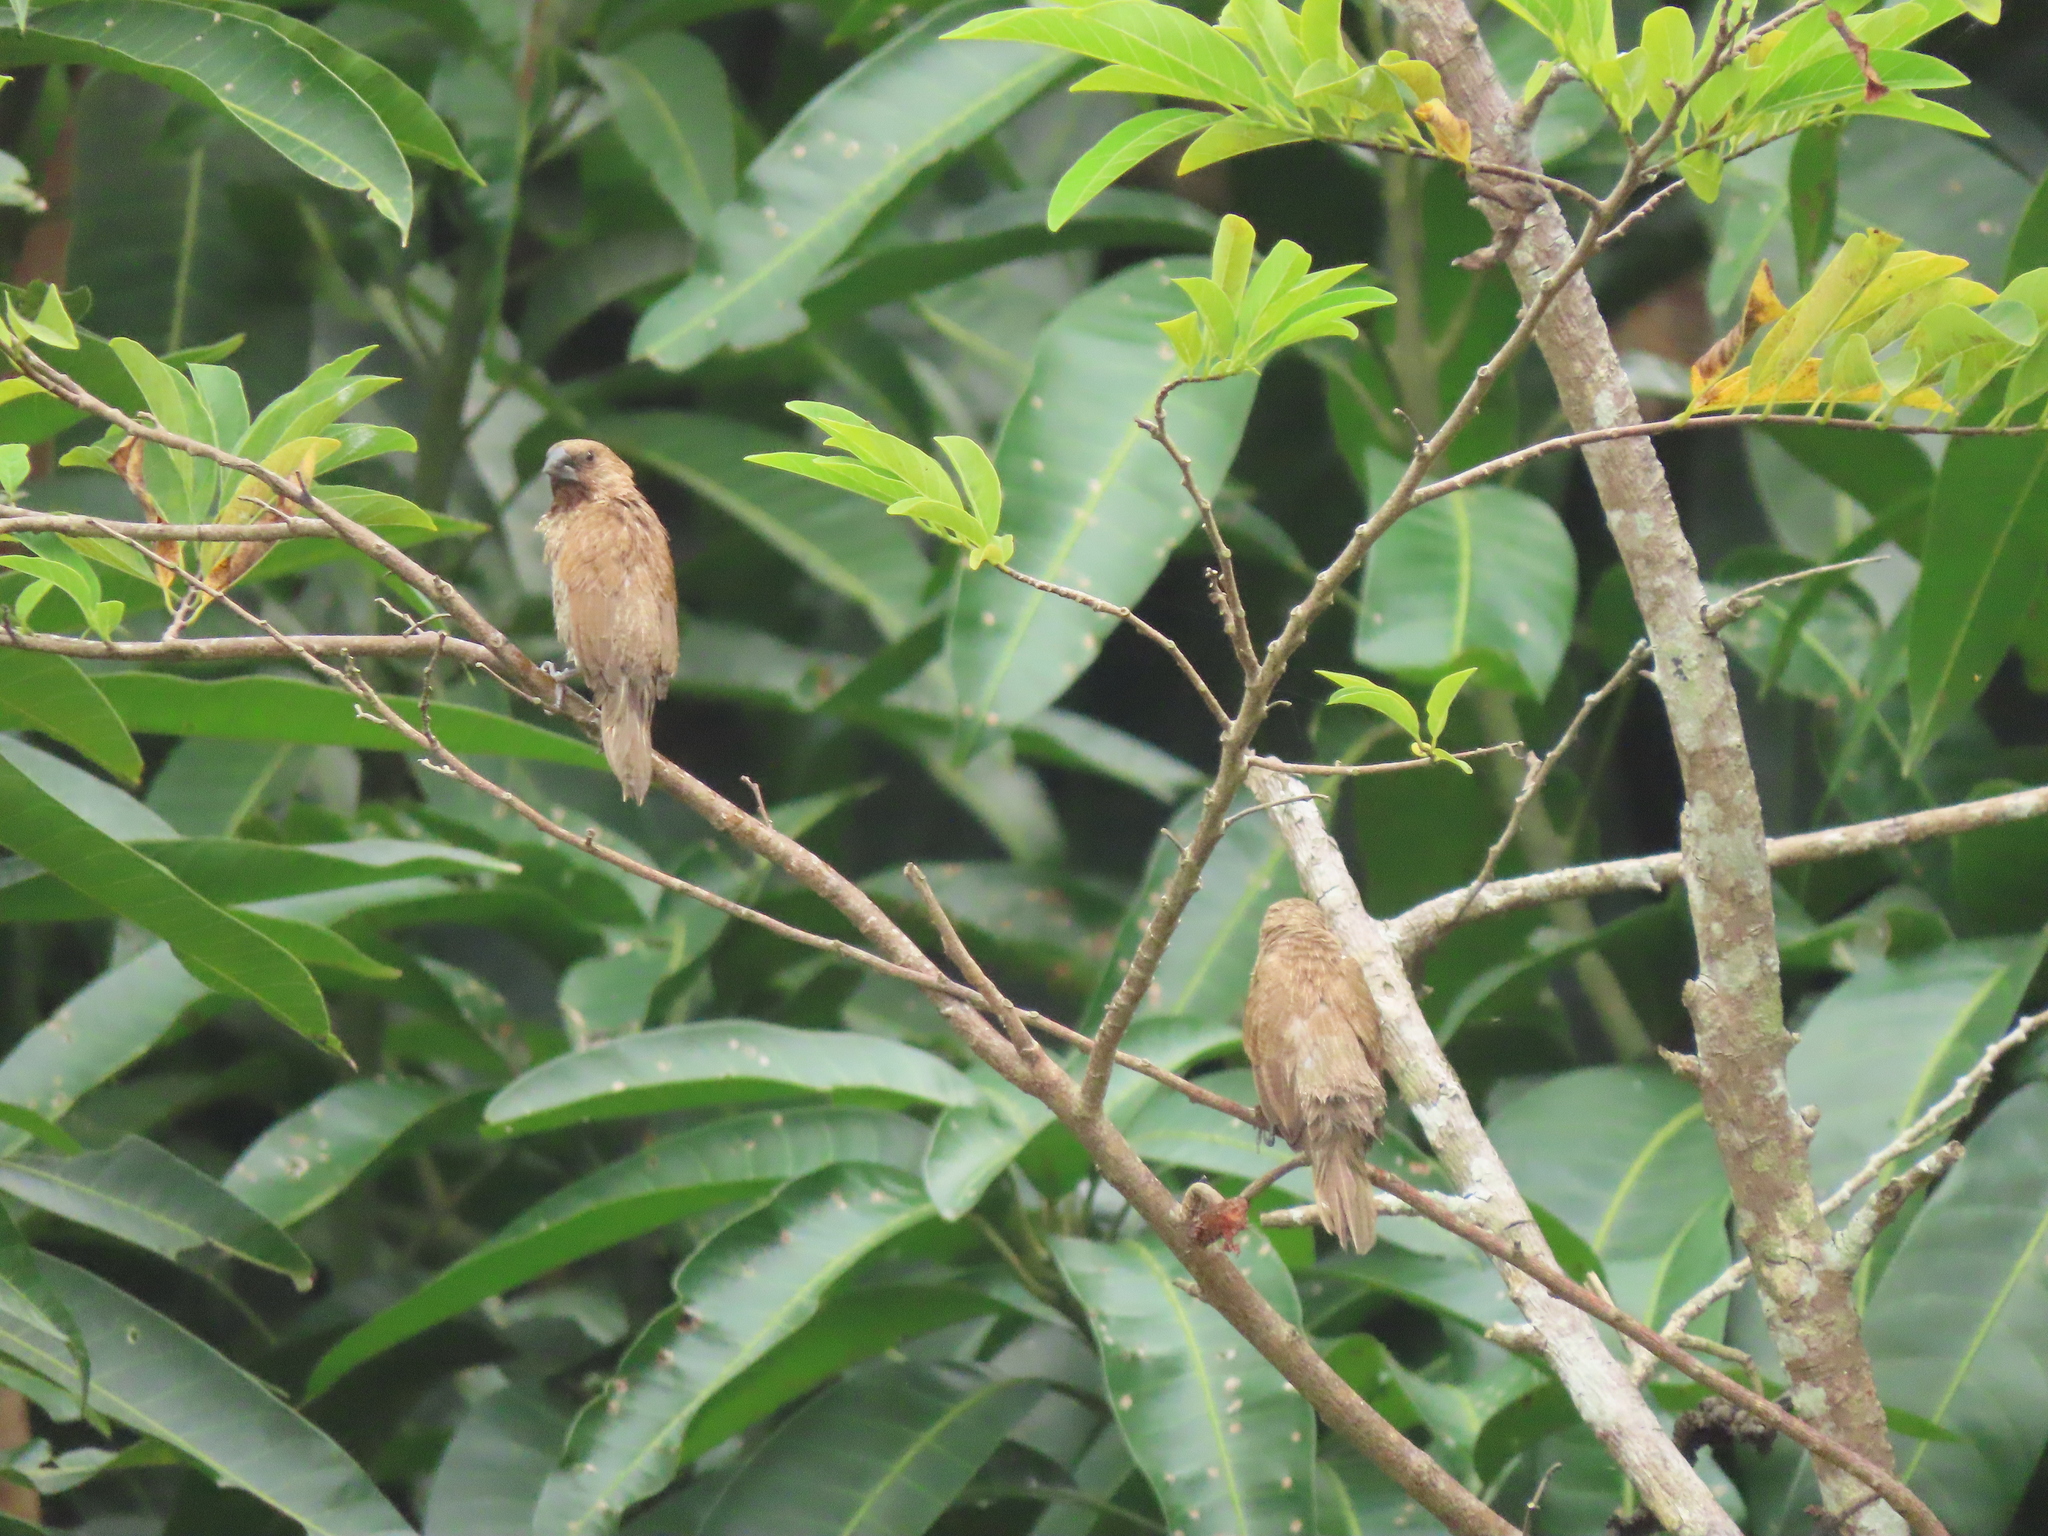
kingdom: Animalia
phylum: Chordata
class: Aves
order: Passeriformes
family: Estrildidae
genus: Lonchura
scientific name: Lonchura punctulata
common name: Scaly-breasted munia
